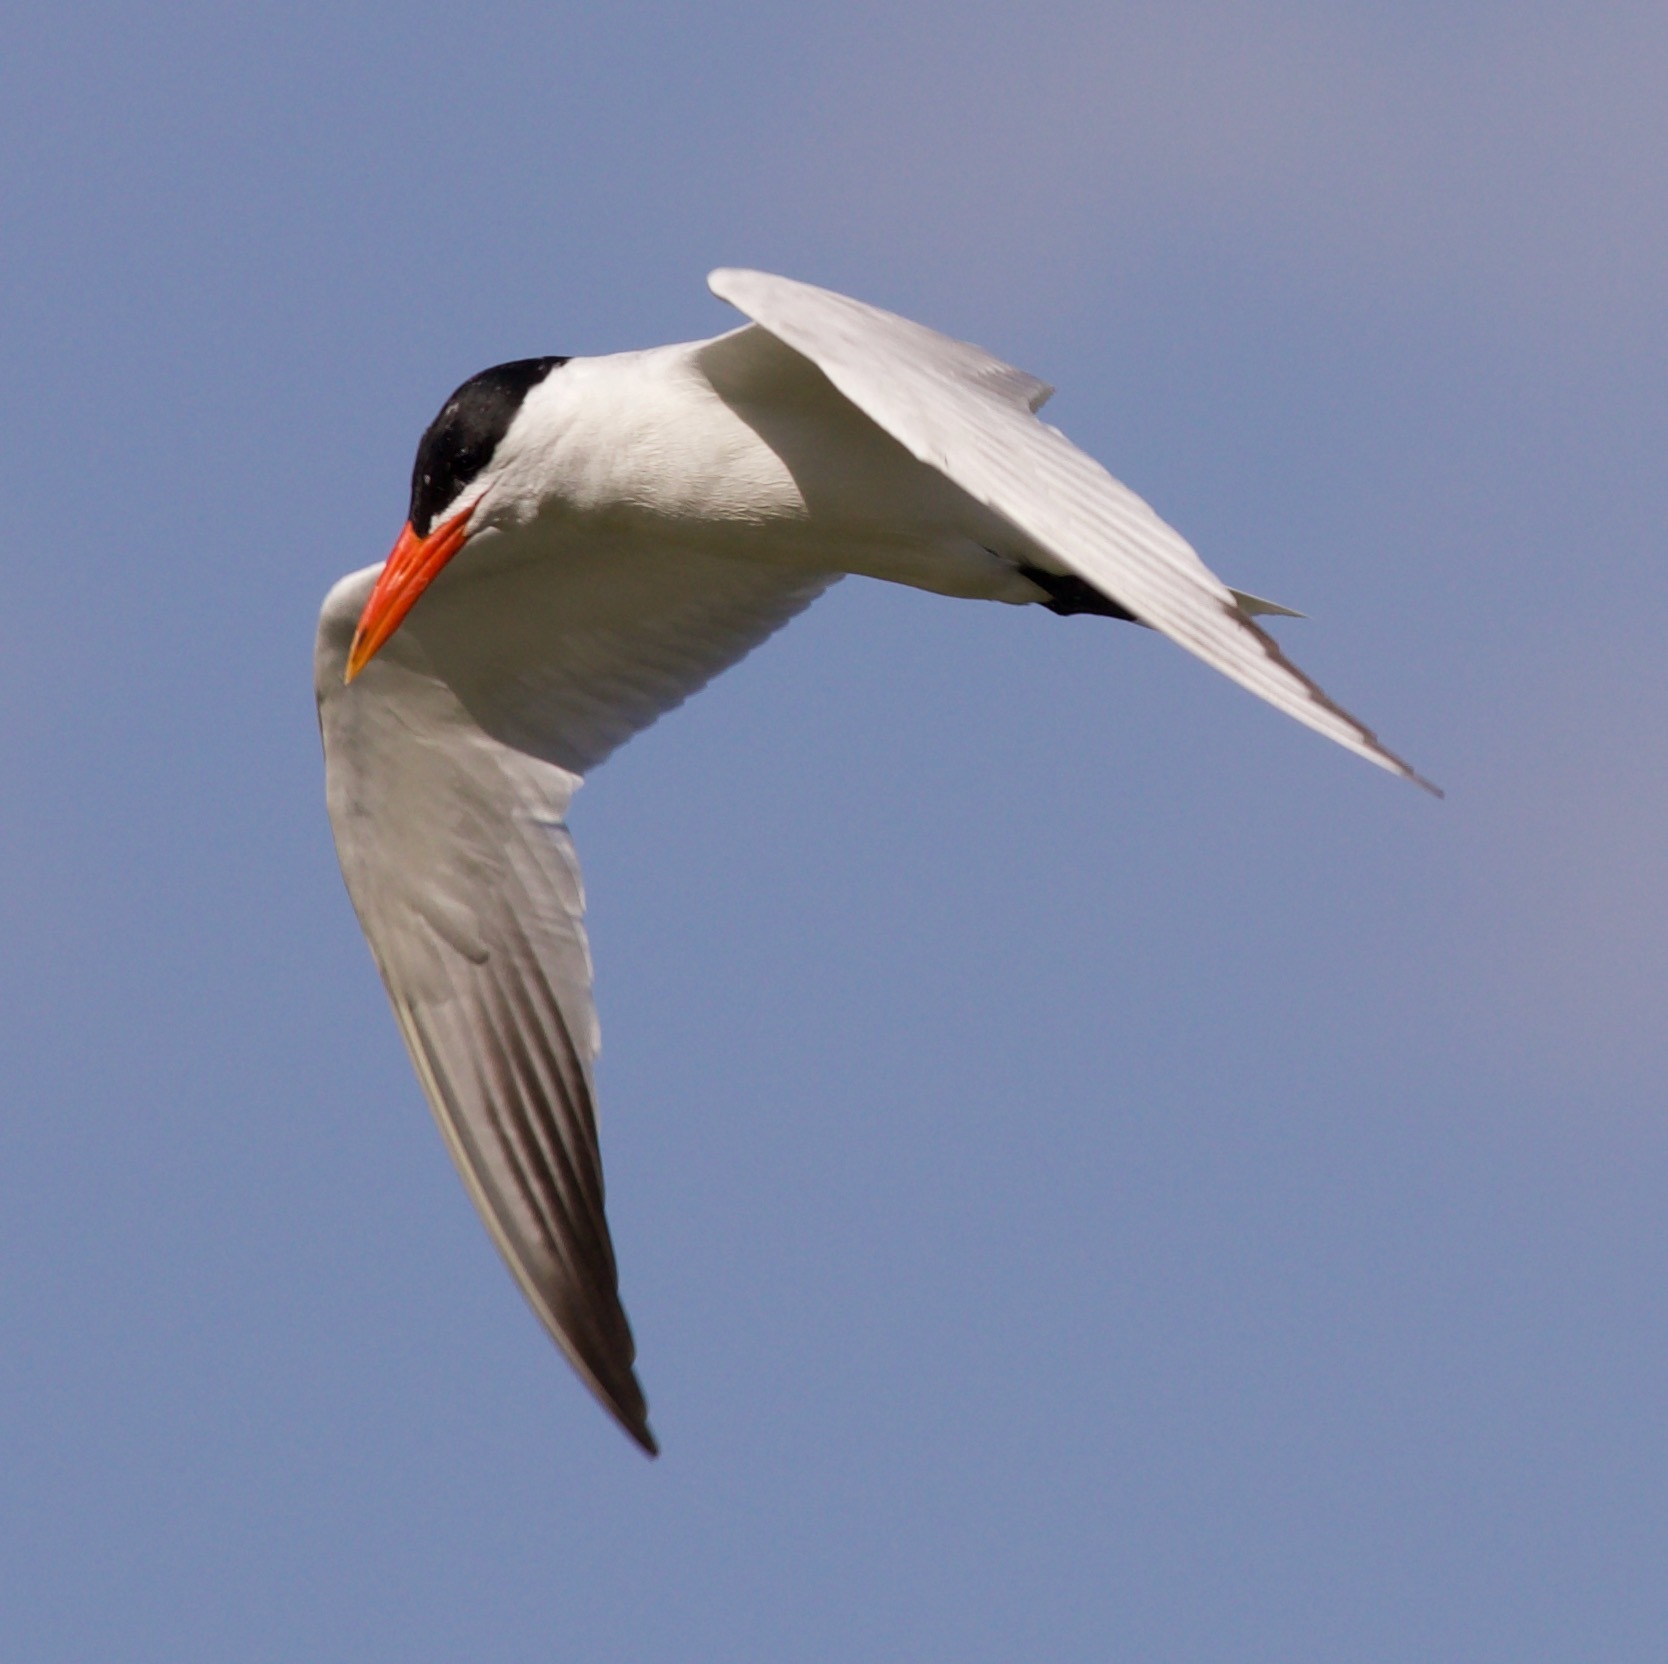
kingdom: Animalia
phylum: Chordata
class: Aves
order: Charadriiformes
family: Laridae
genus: Hydroprogne
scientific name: Hydroprogne caspia
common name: Caspian tern
